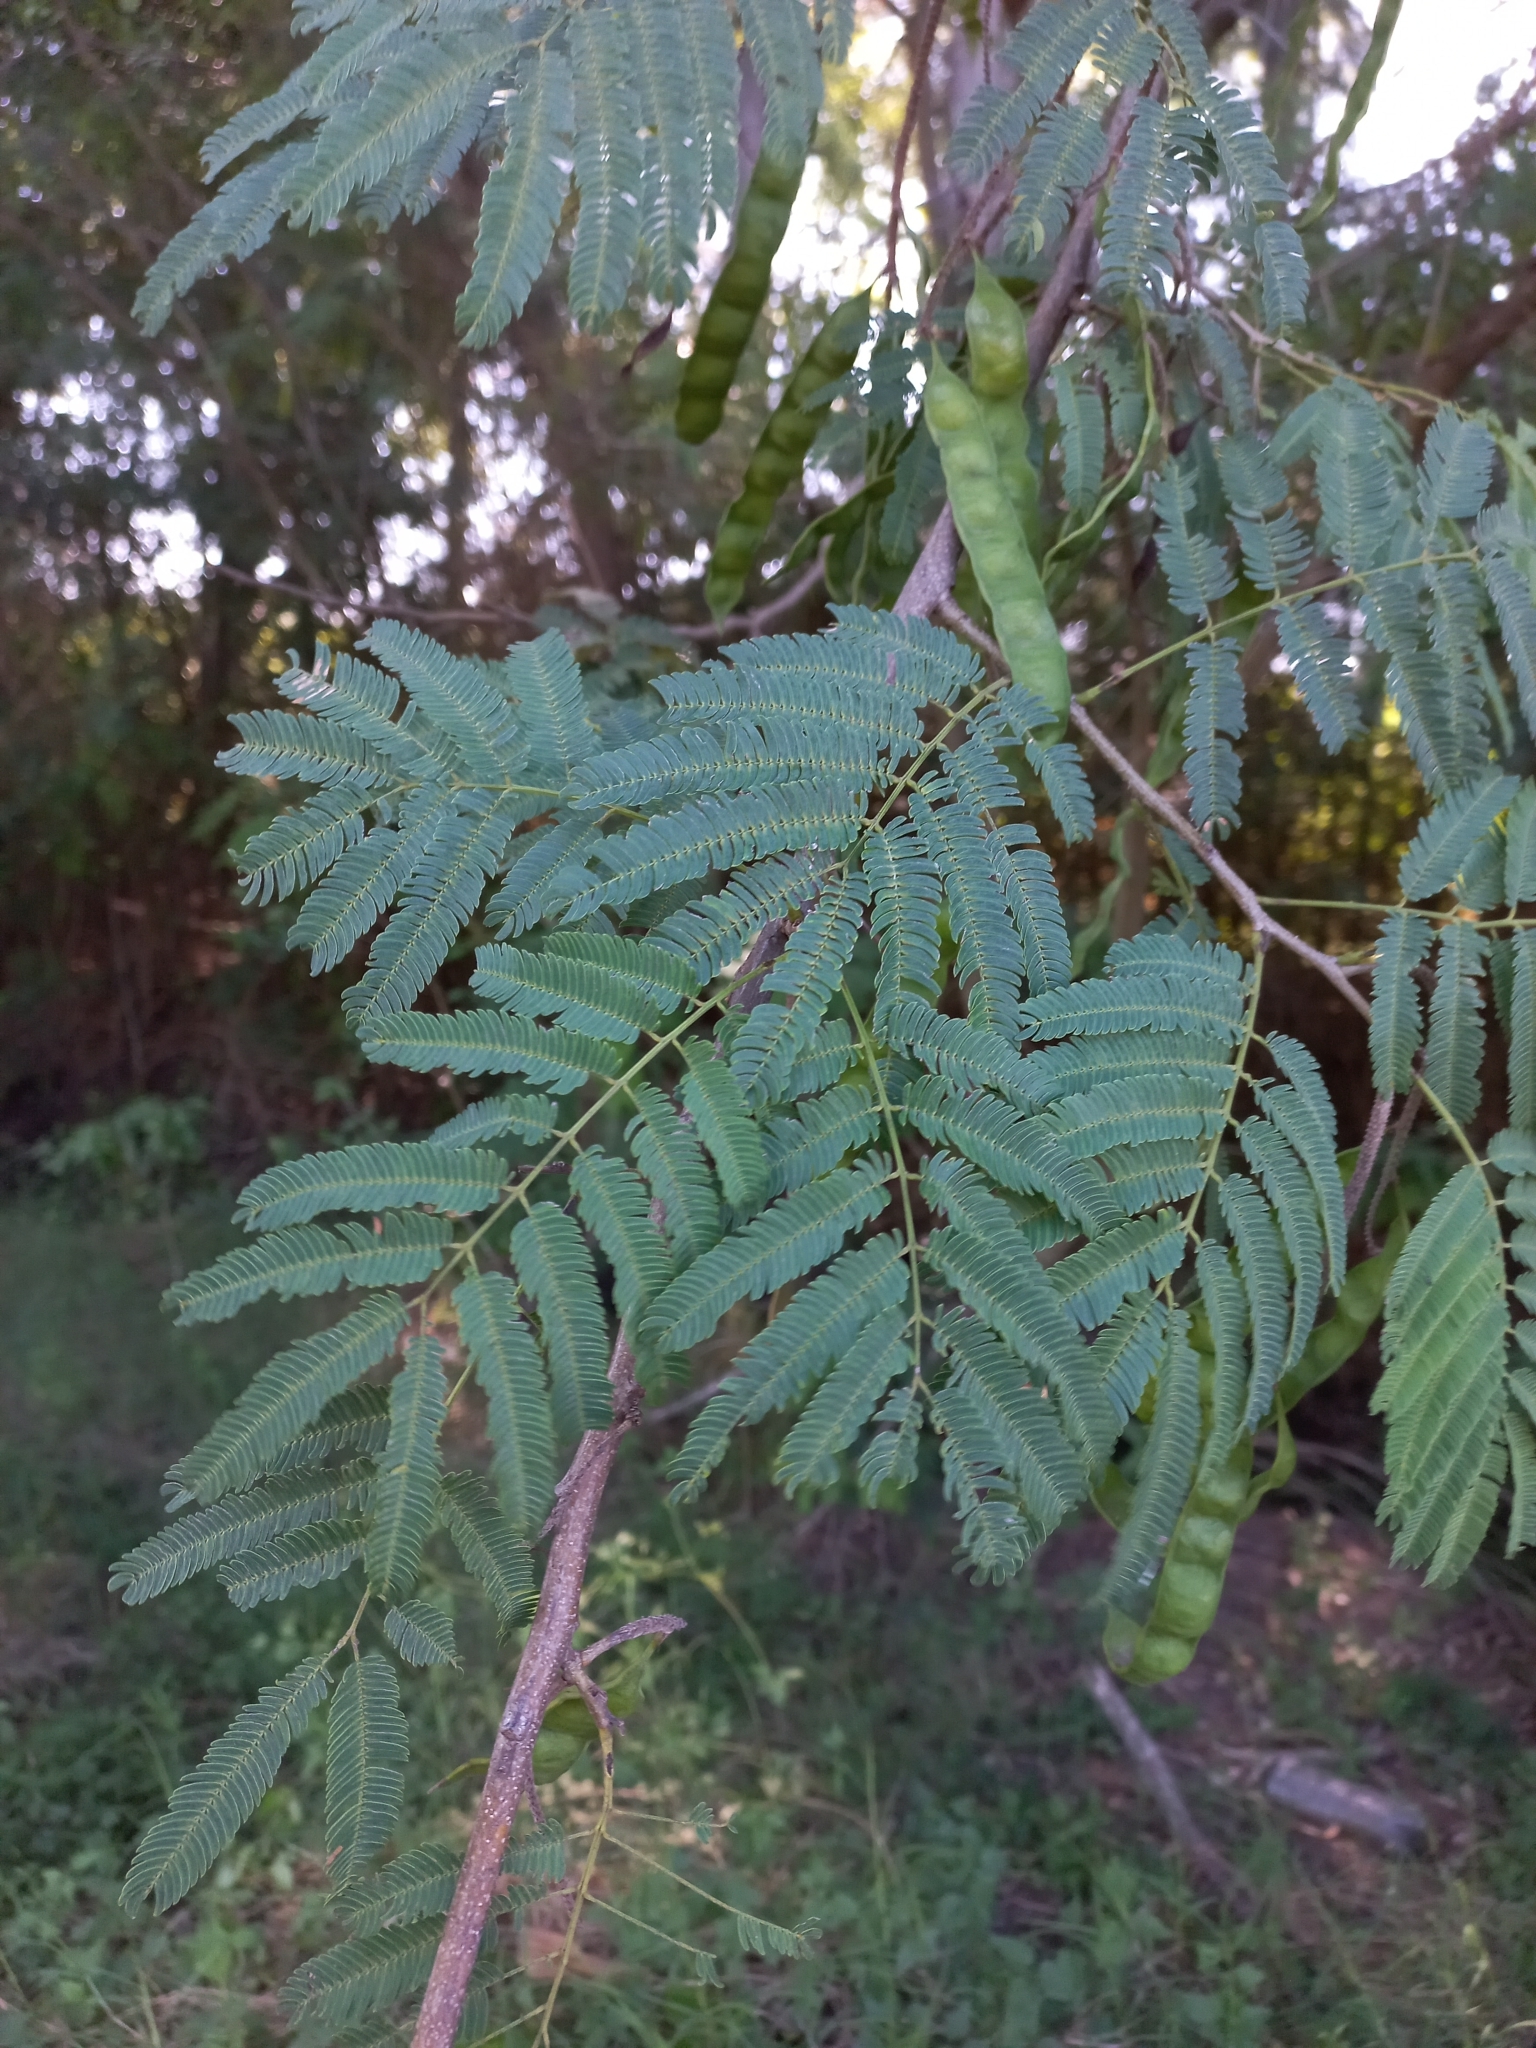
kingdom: Plantae
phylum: Tracheophyta
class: Magnoliopsida
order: Fabales
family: Fabaceae
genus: Parapiptadenia
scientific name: Parapiptadenia rigida
